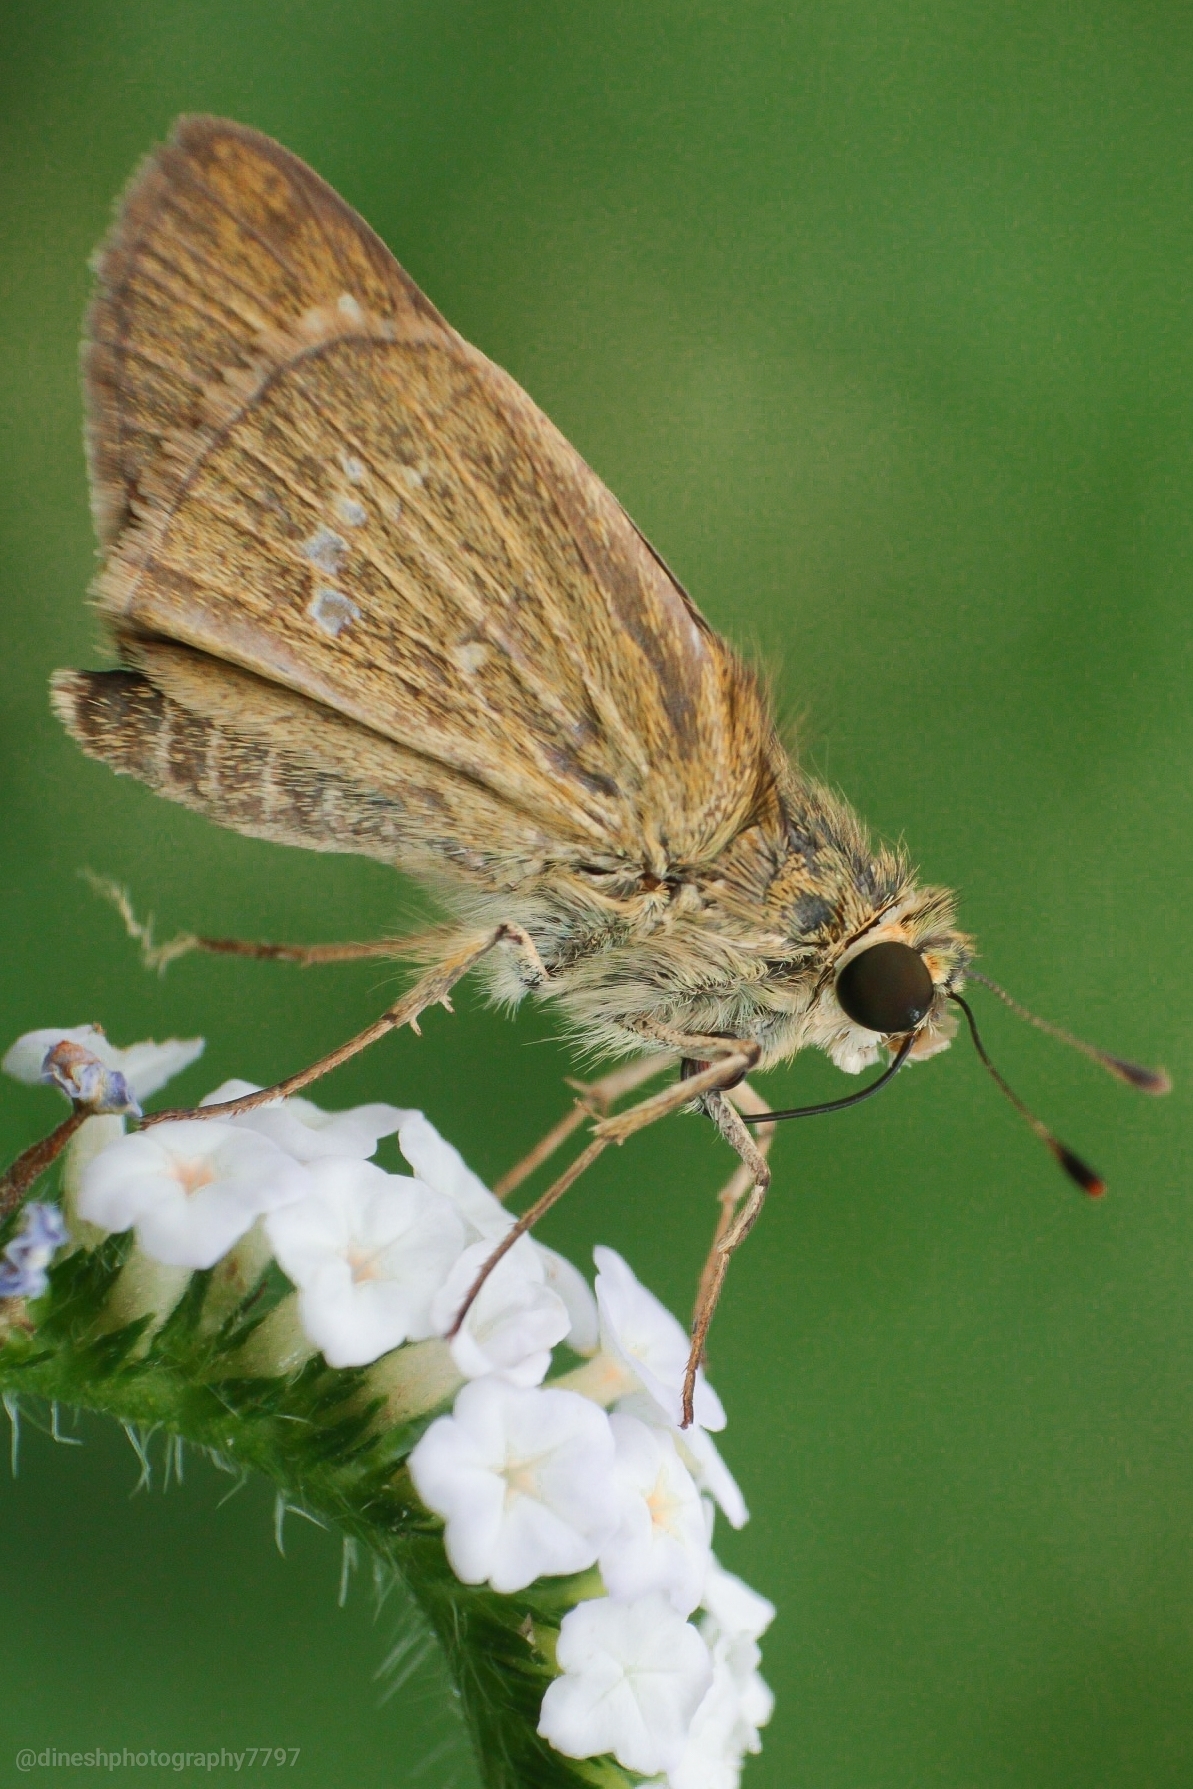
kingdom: Animalia
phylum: Arthropoda
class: Insecta
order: Lepidoptera
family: Hesperiidae
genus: Parnara
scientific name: Parnara naso
